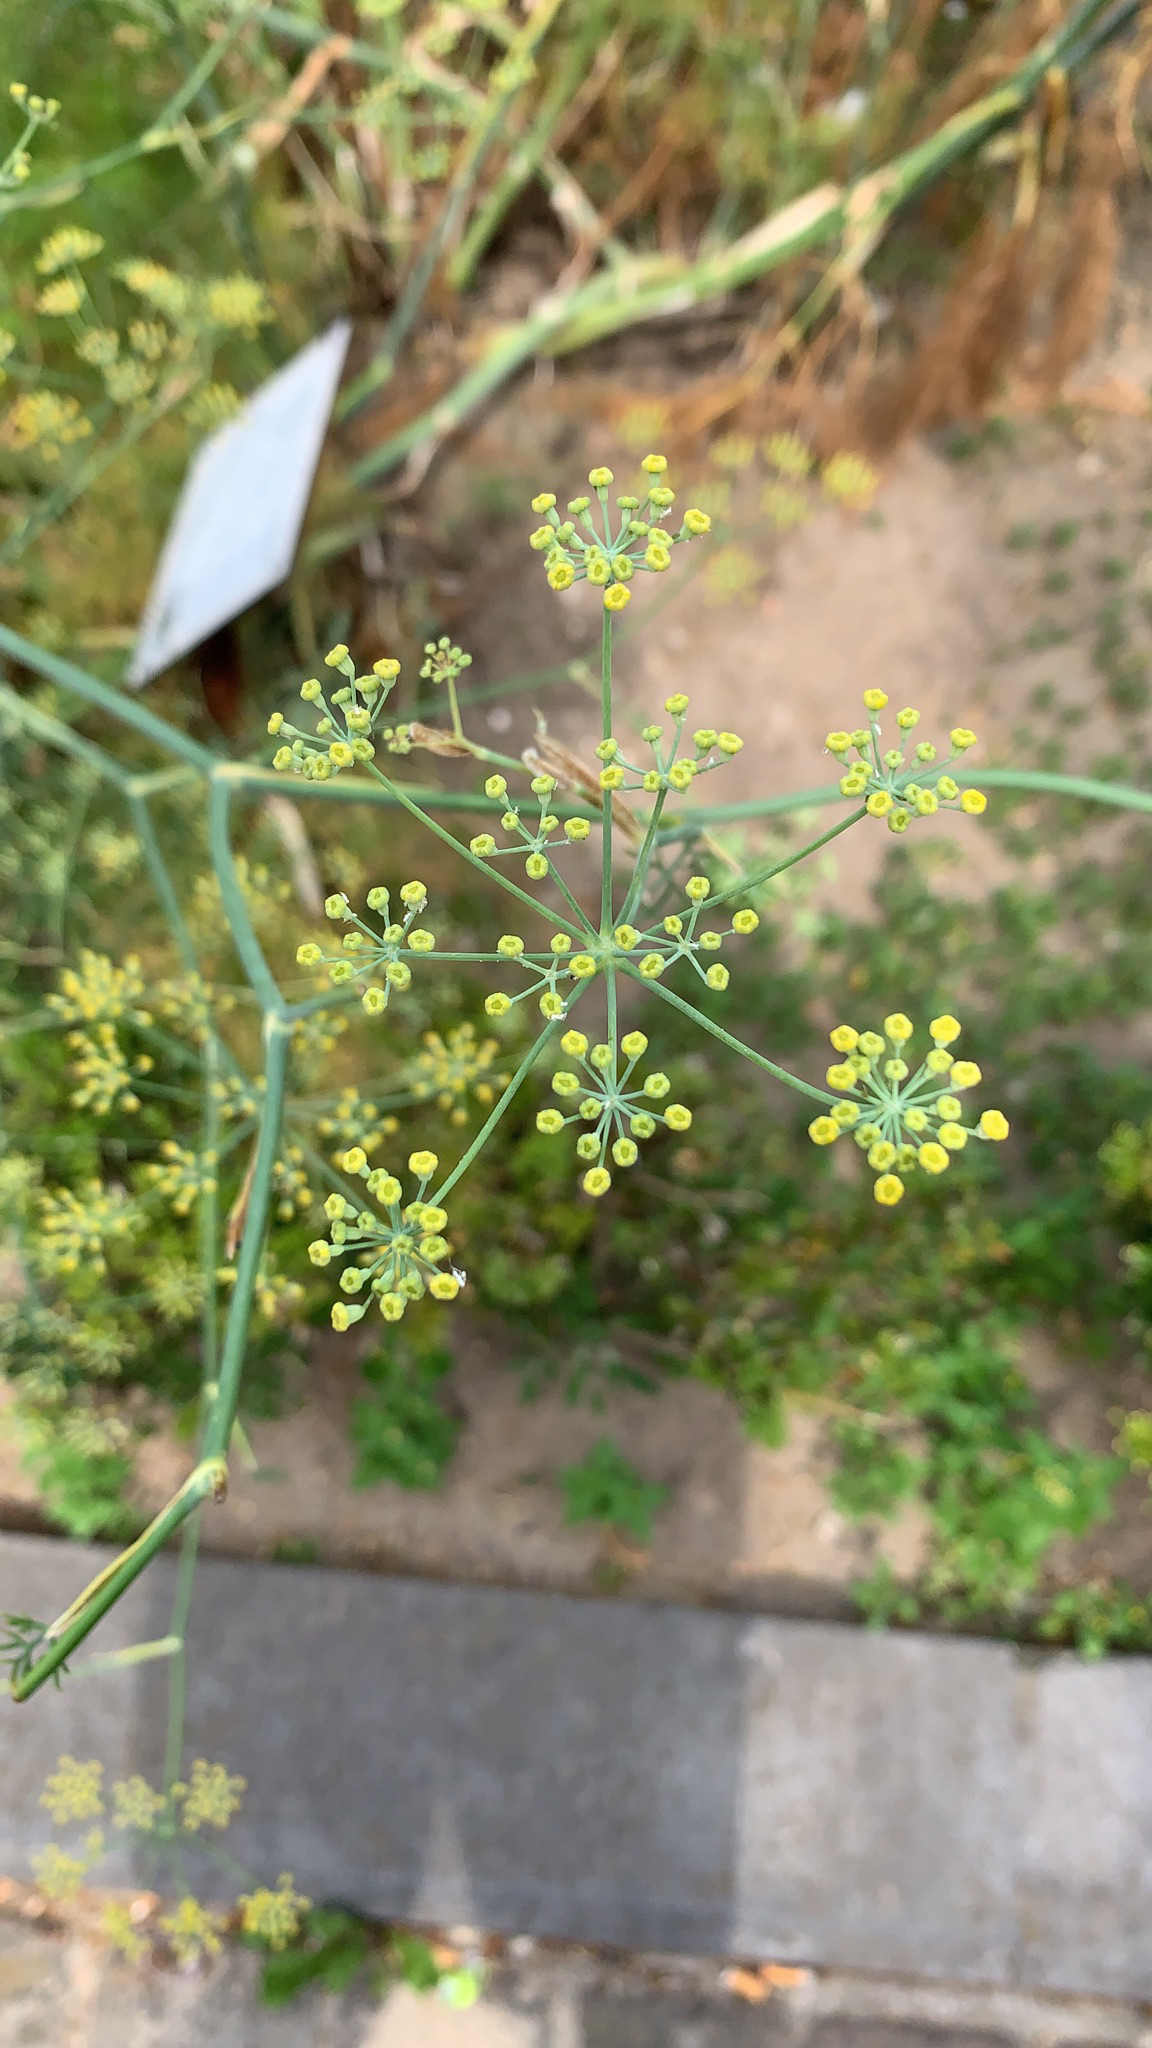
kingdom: Plantae
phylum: Tracheophyta
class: Magnoliopsida
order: Apiales
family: Apiaceae
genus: Foeniculum
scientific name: Foeniculum vulgare
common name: Fennel
